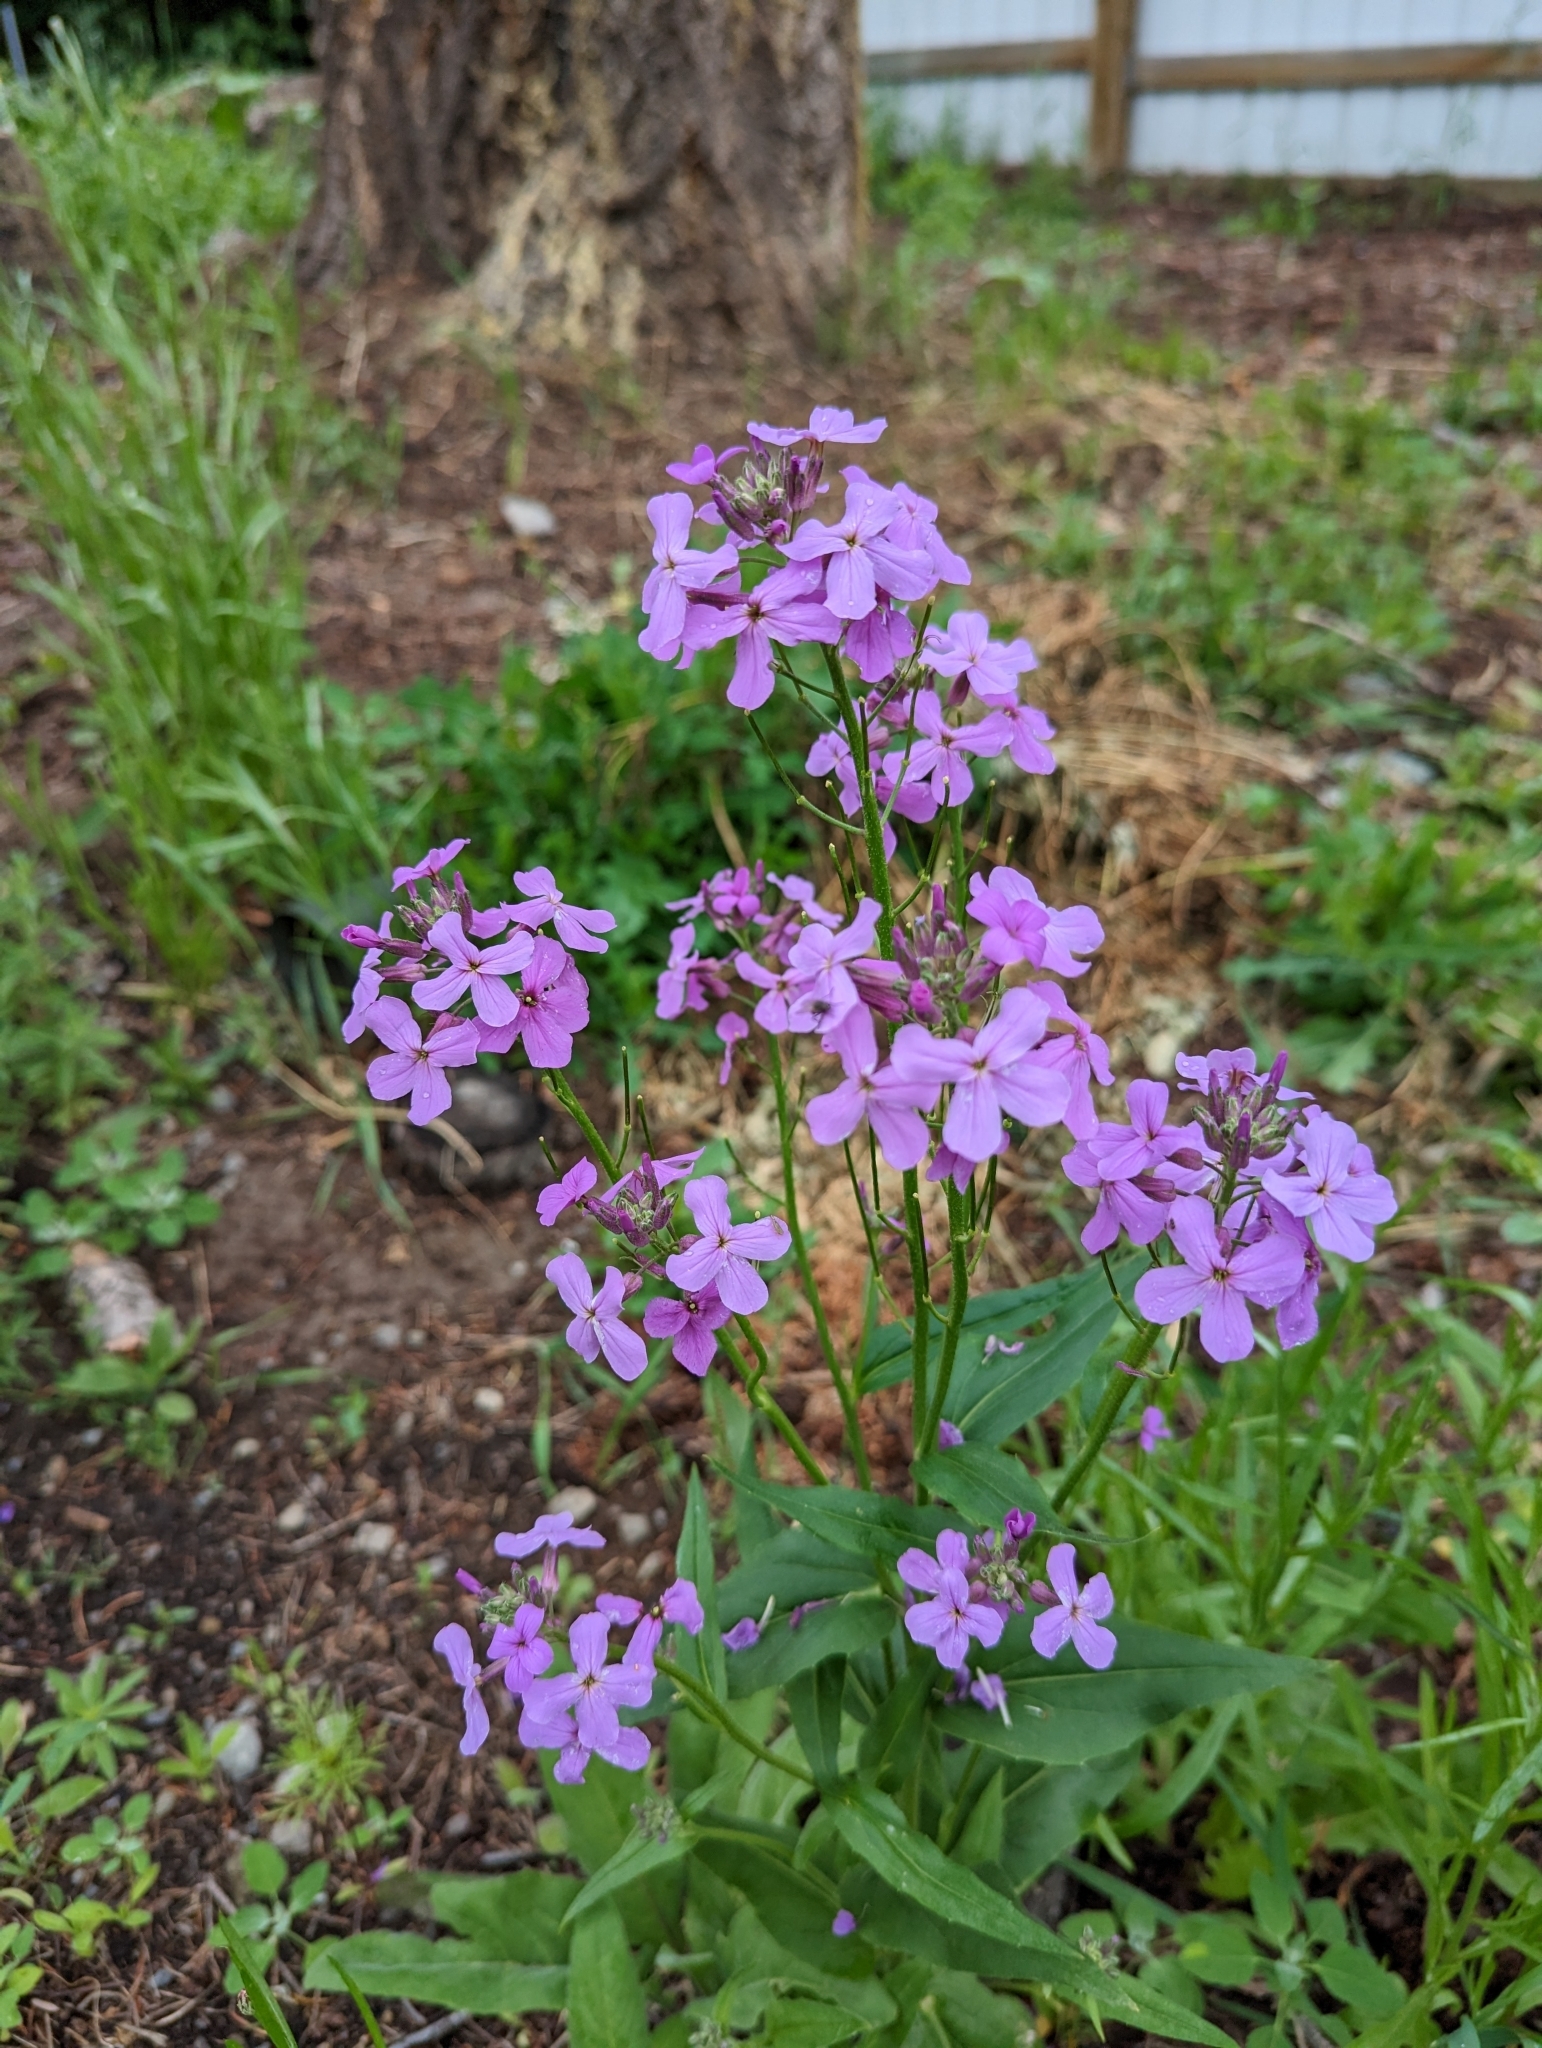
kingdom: Plantae
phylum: Tracheophyta
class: Magnoliopsida
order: Brassicales
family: Brassicaceae
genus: Hesperis
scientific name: Hesperis matronalis
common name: Dame's-violet
